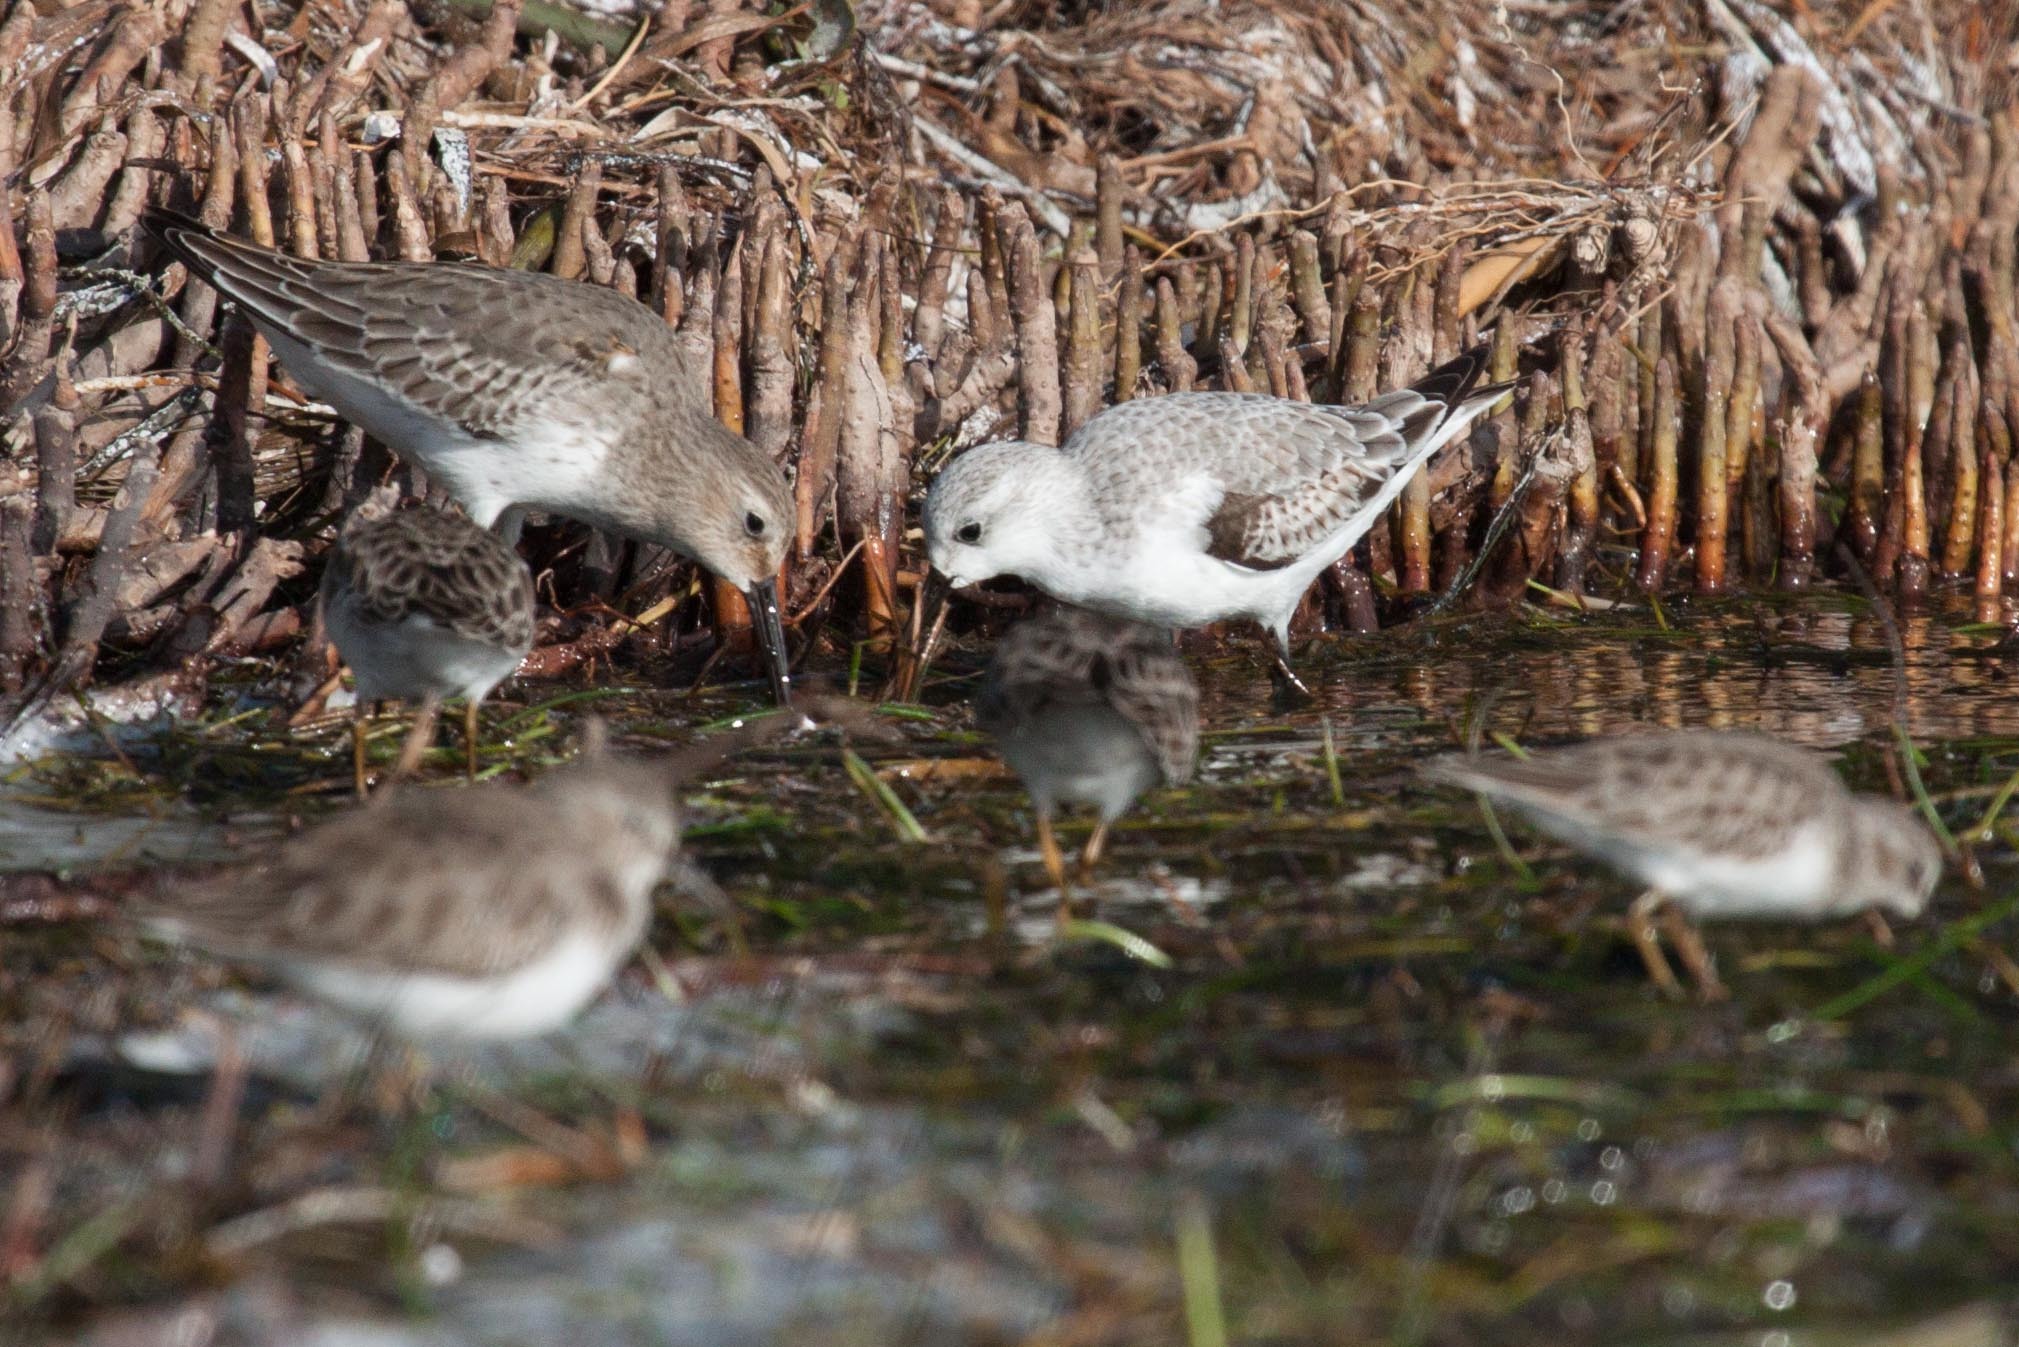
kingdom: Animalia
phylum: Chordata
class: Aves
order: Charadriiformes
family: Scolopacidae
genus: Calidris
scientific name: Calidris alpina
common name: Dunlin
